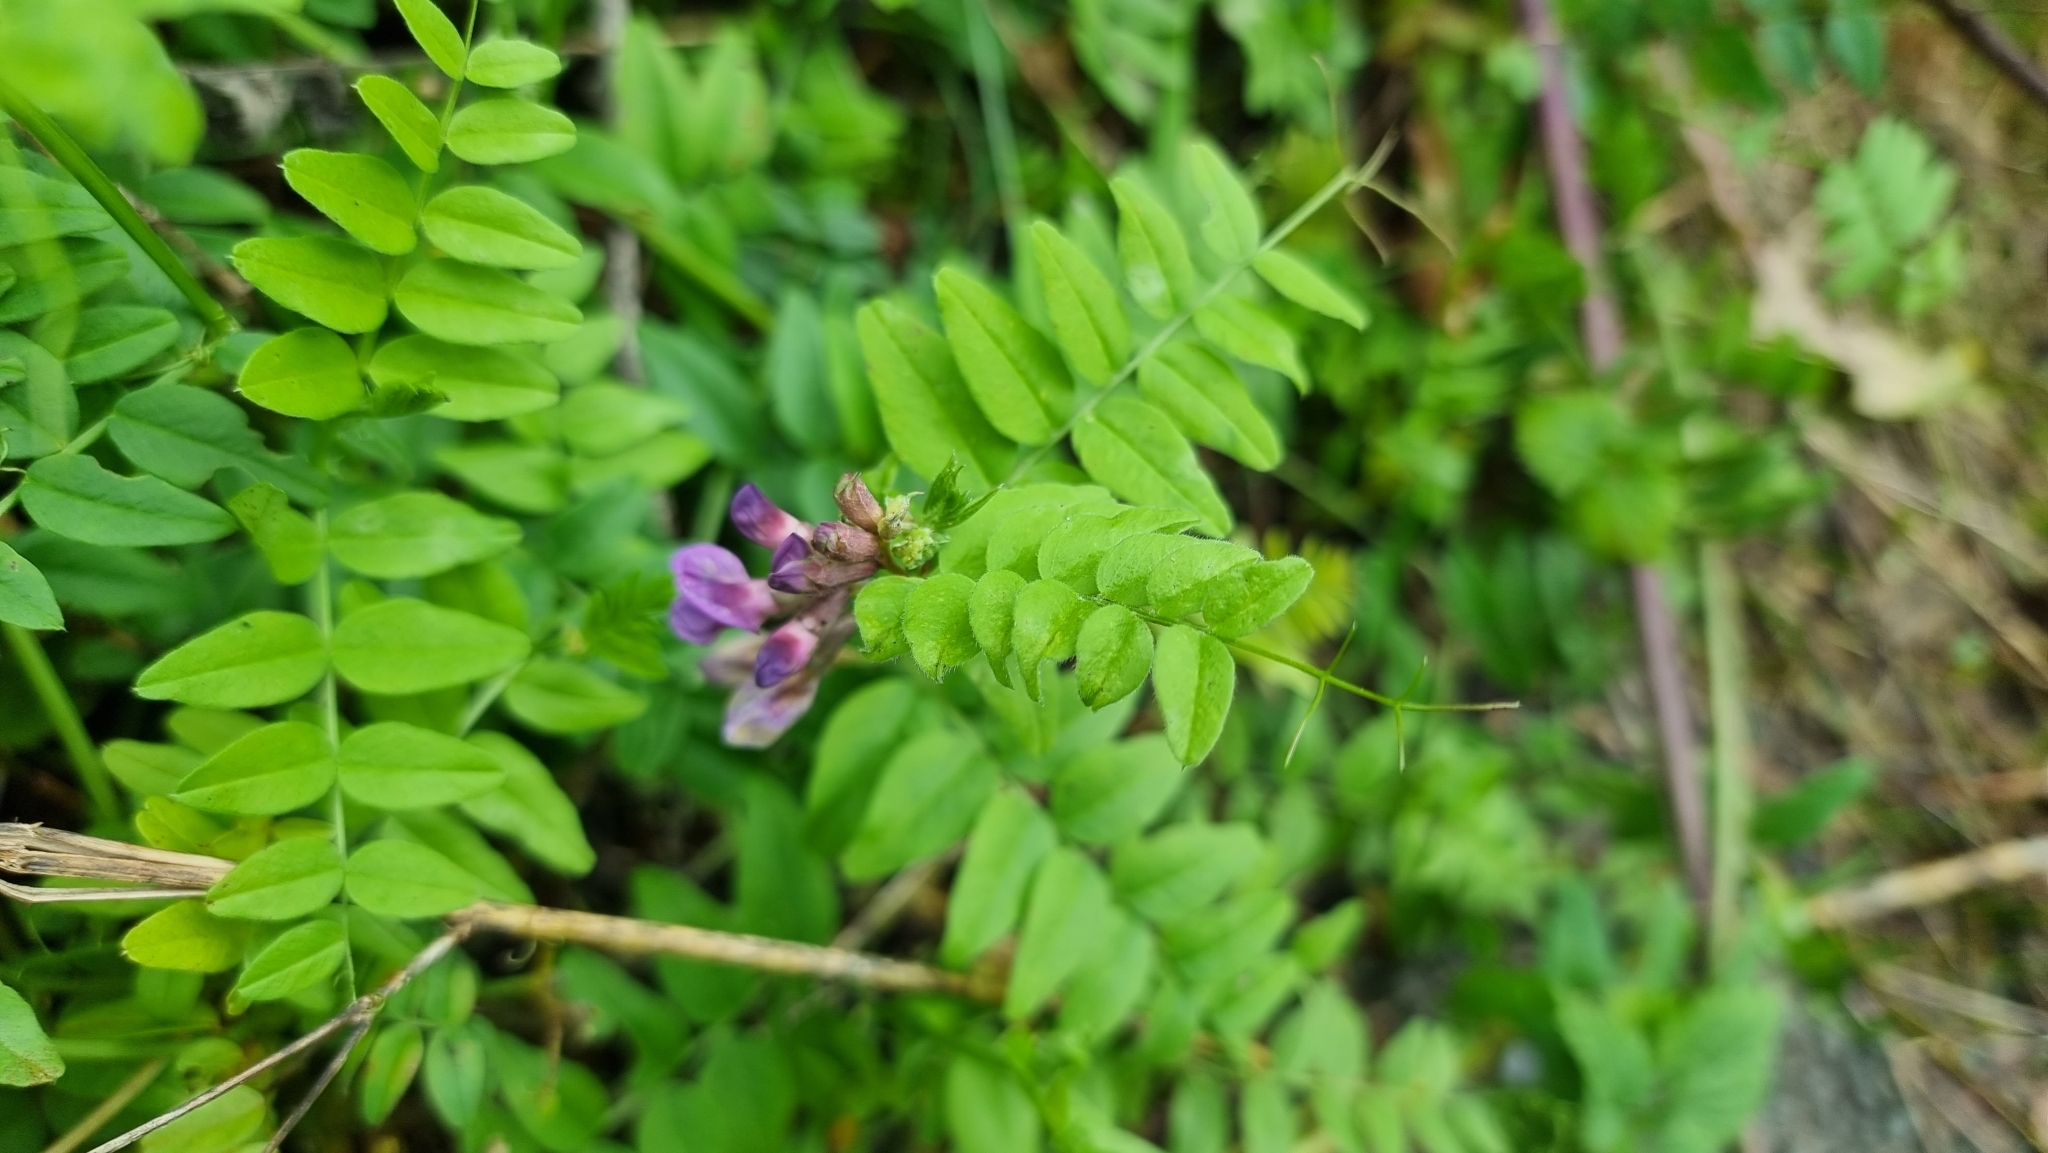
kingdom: Plantae
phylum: Tracheophyta
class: Magnoliopsida
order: Fabales
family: Fabaceae
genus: Vicia
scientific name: Vicia sepium
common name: Bush vetch
